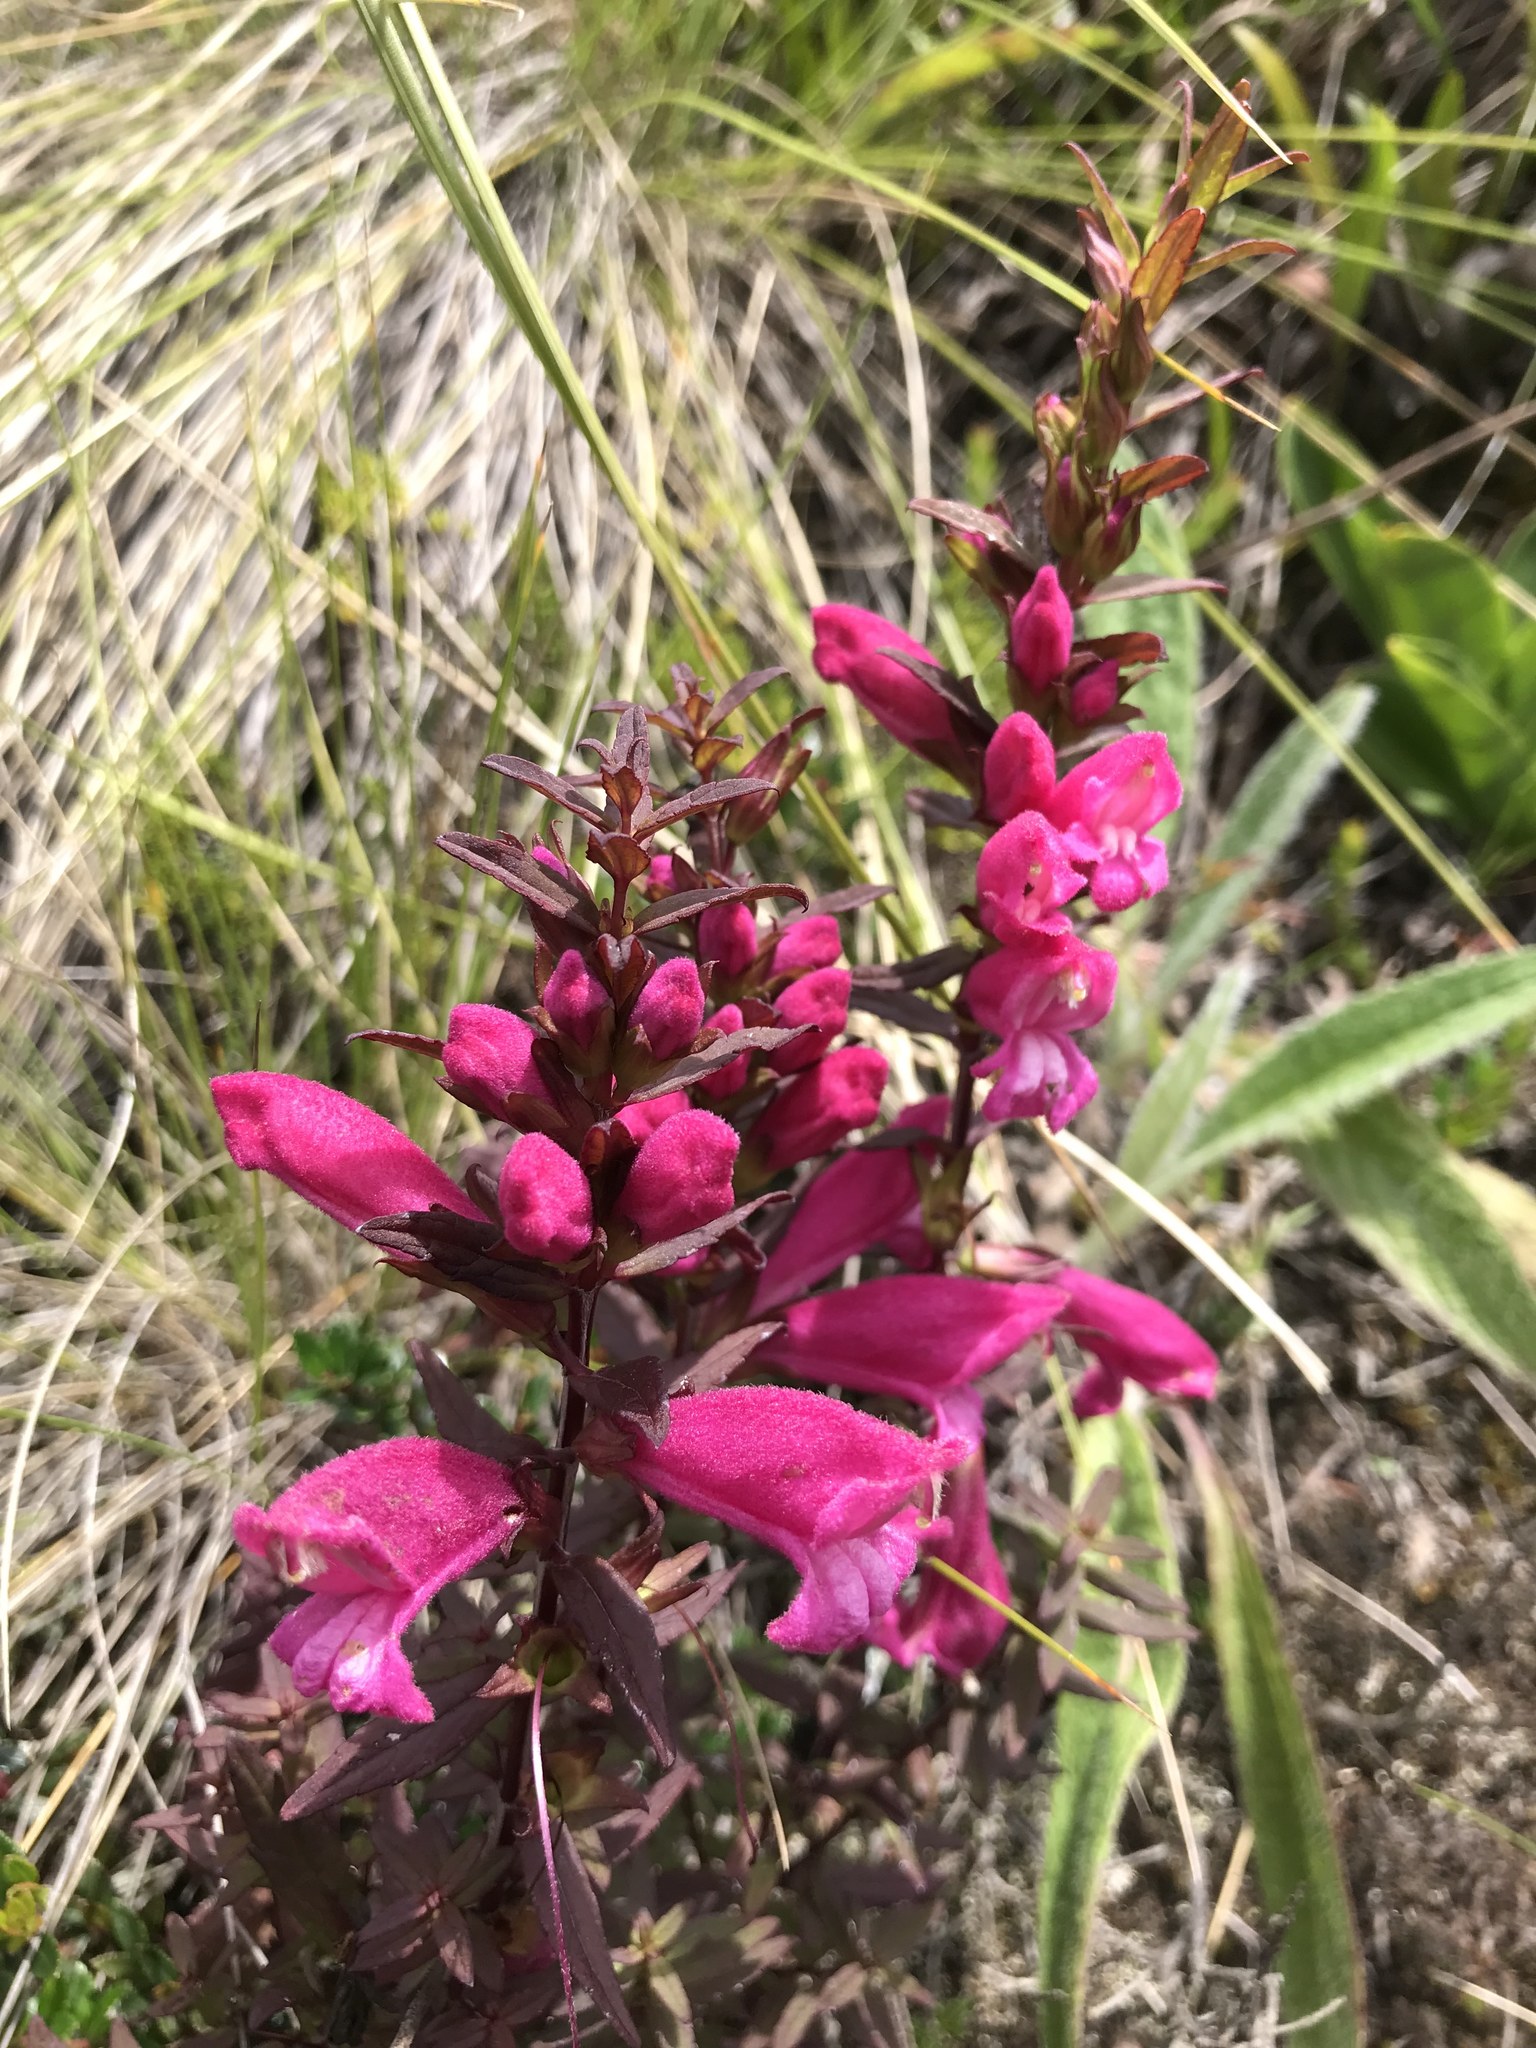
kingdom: Plantae
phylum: Tracheophyta
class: Magnoliopsida
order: Lamiales
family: Orobanchaceae
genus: Lamourouxia
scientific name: Lamourouxia virgata
